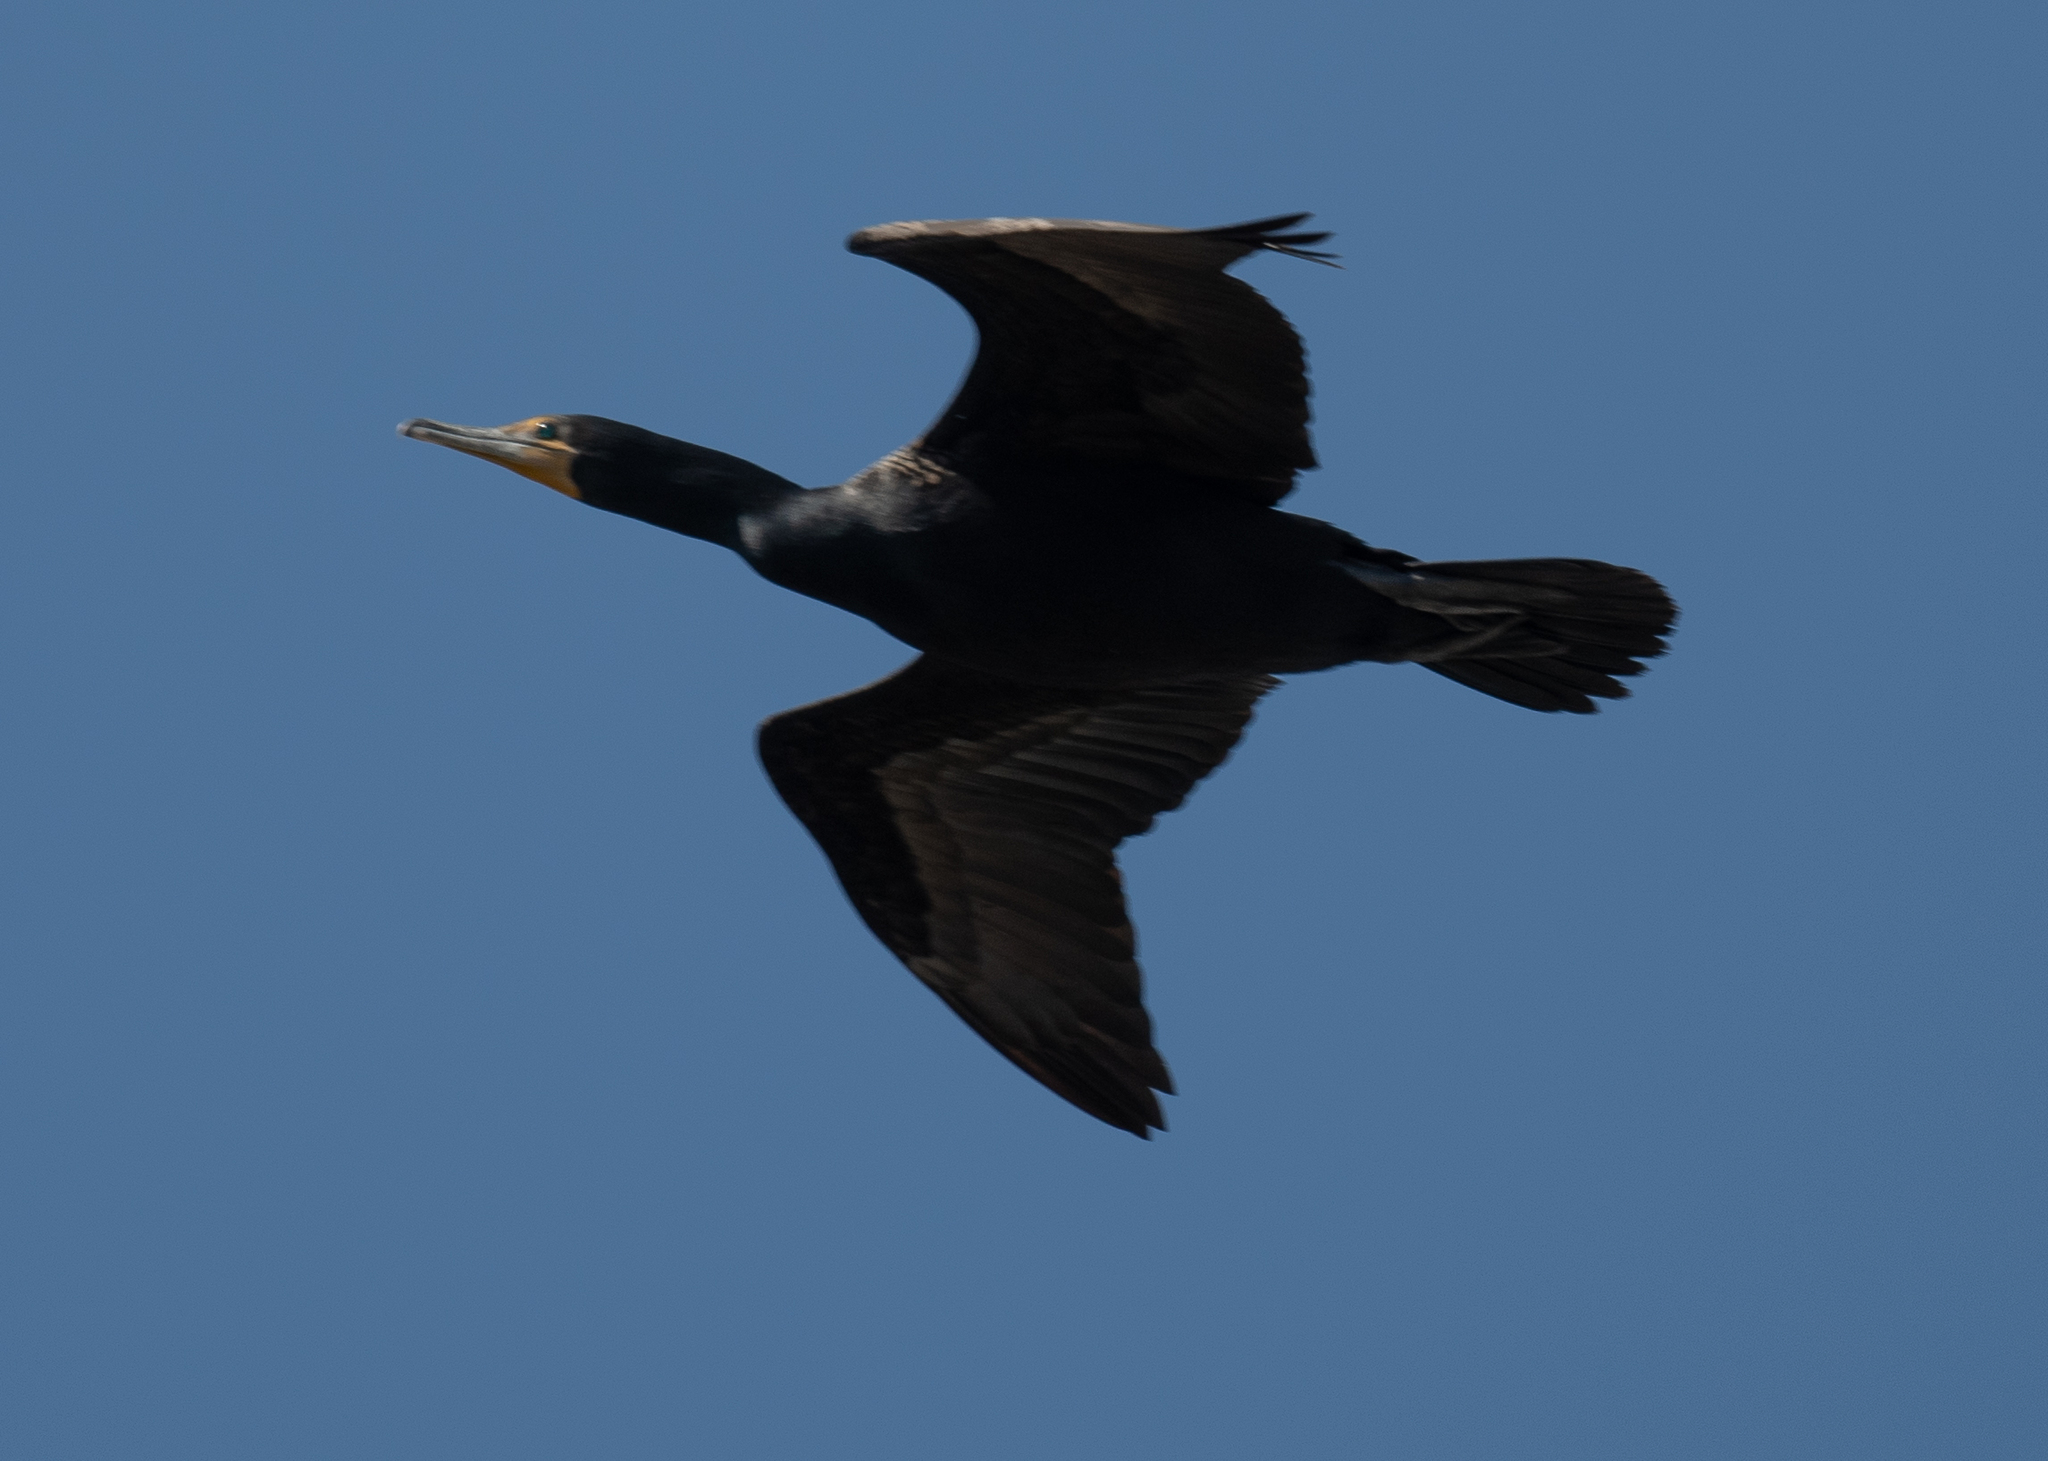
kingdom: Animalia
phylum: Chordata
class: Aves
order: Suliformes
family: Phalacrocoracidae
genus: Phalacrocorax
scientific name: Phalacrocorax auritus
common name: Double-crested cormorant
